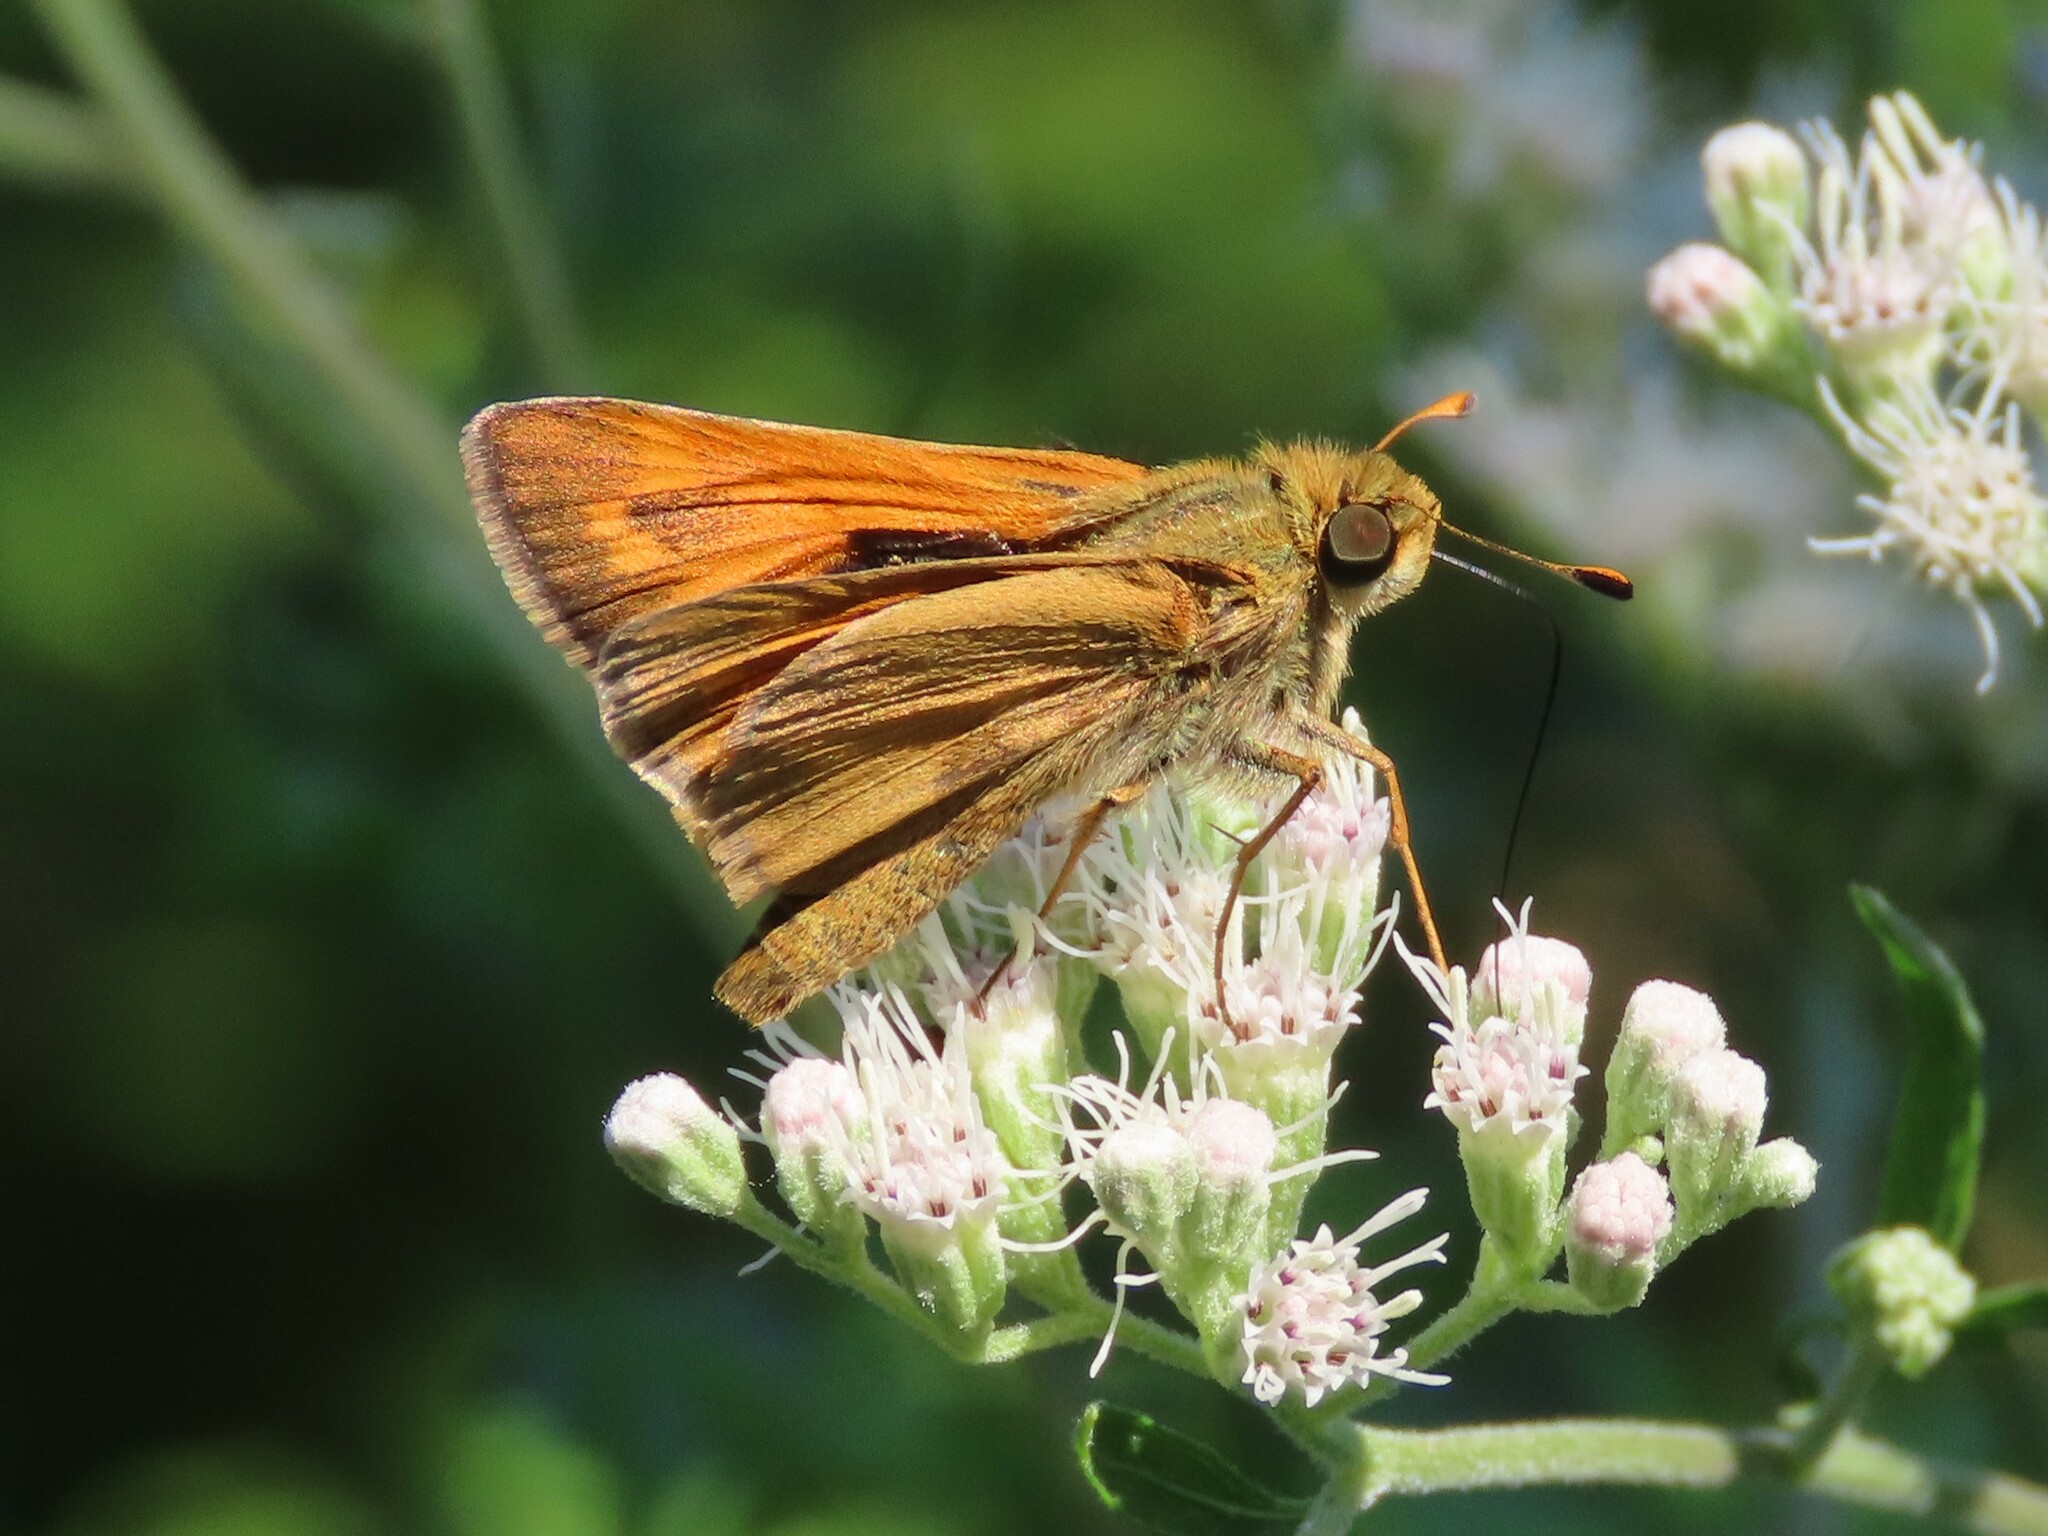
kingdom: Animalia
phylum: Arthropoda
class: Insecta
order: Lepidoptera
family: Hesperiidae
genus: Atalopedes
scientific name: Atalopedes
